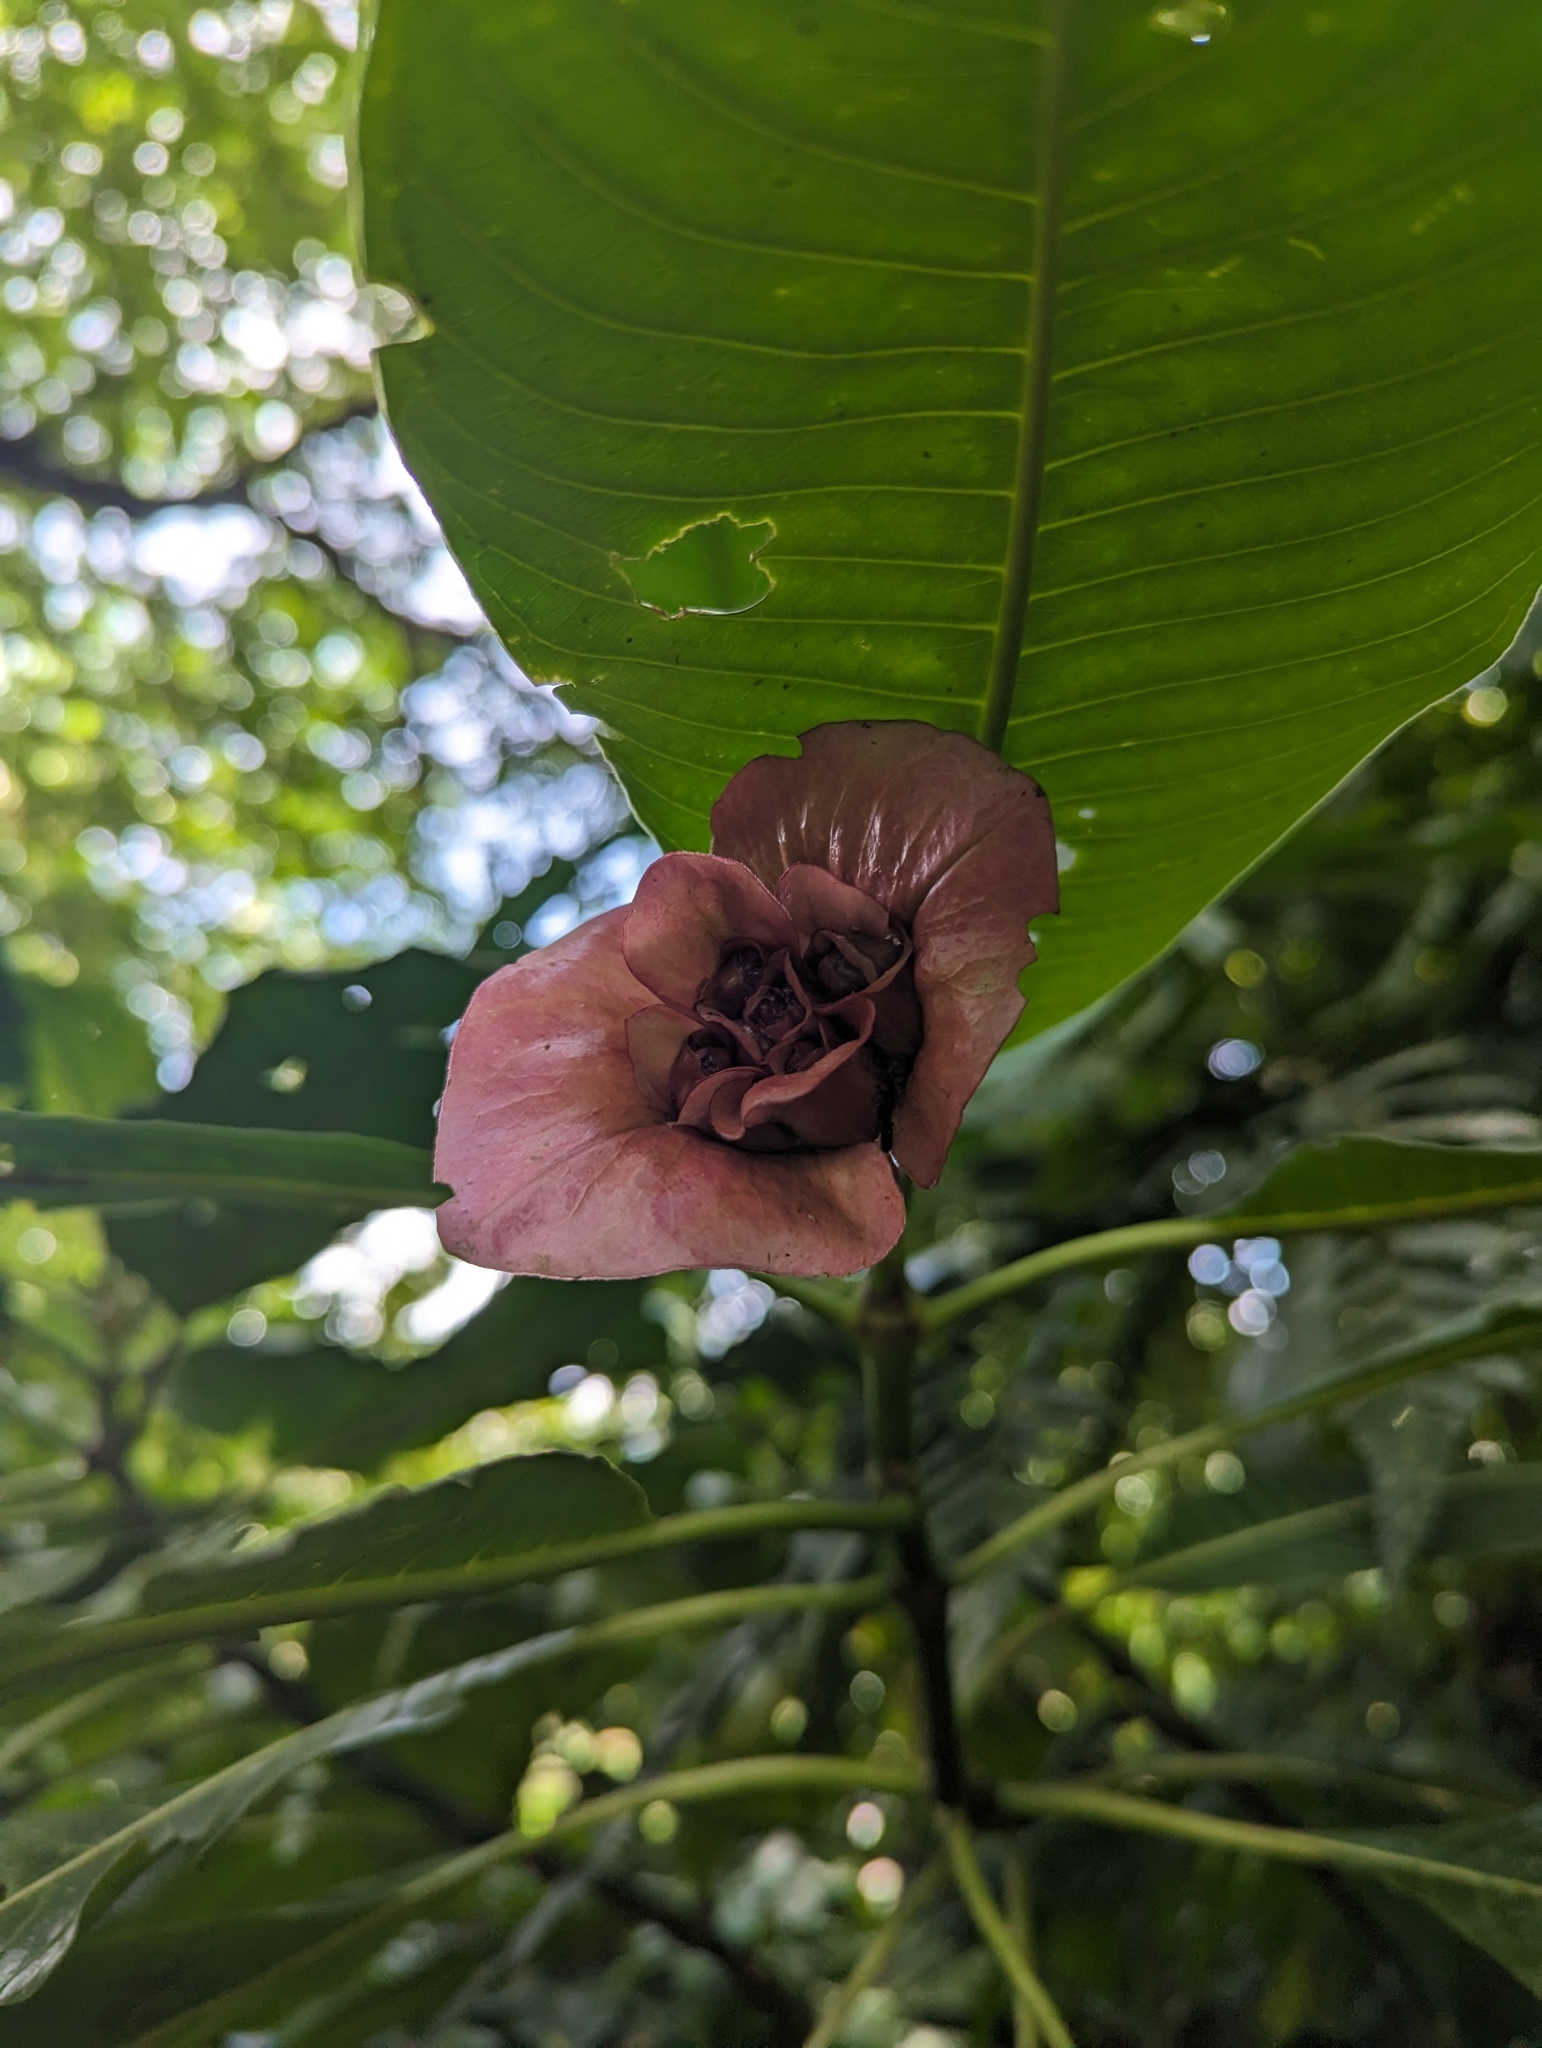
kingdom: Plantae
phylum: Tracheophyta
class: Magnoliopsida
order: Gentianales
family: Rubiaceae
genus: Palicourea
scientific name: Palicourea elata
